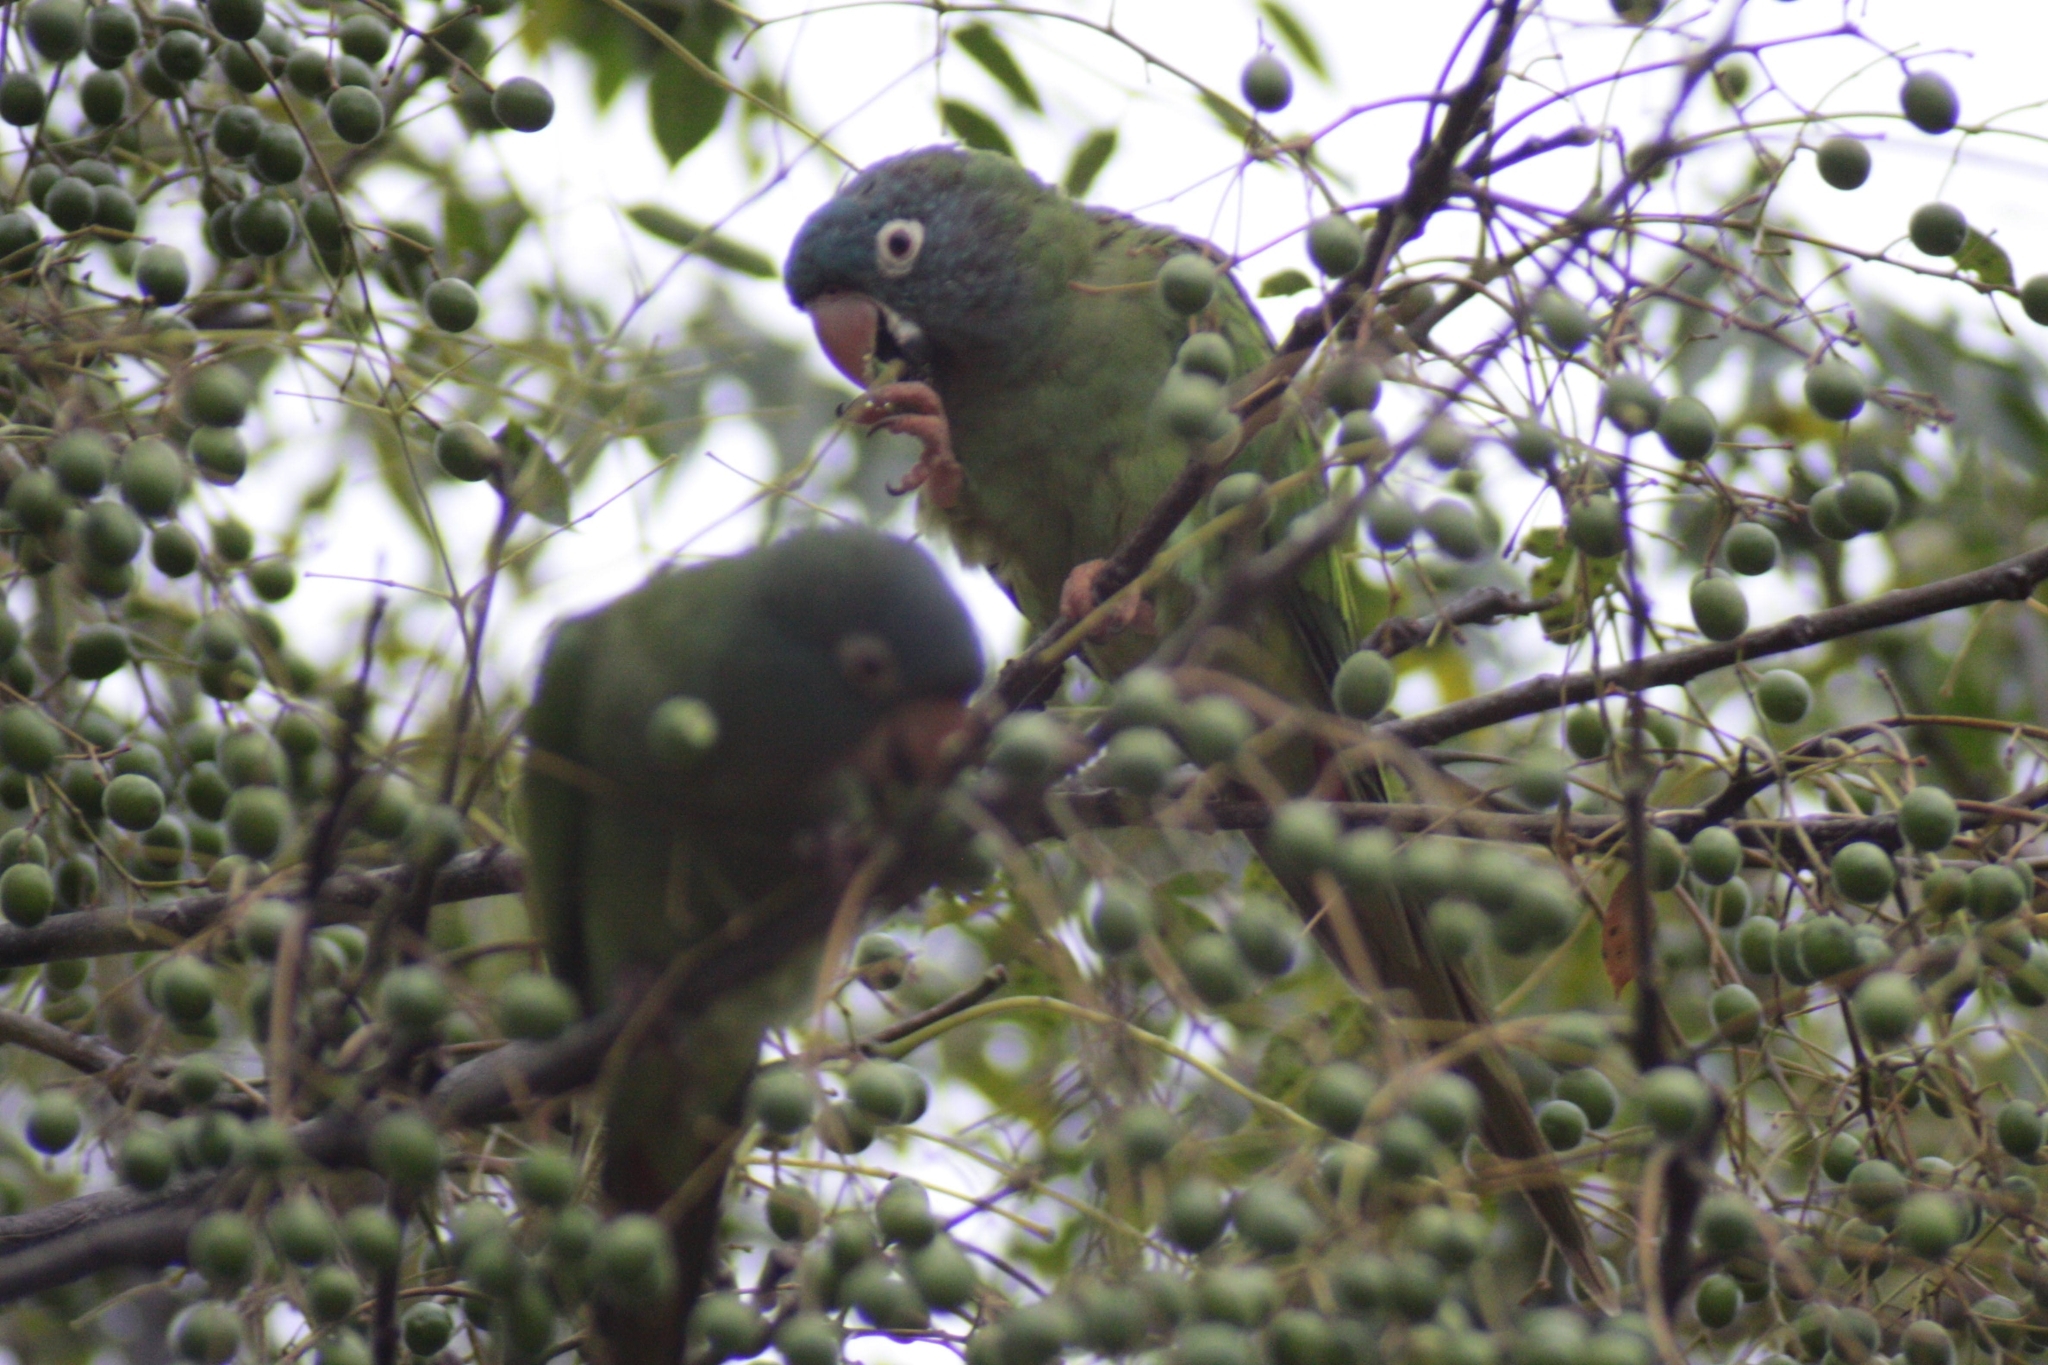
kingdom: Animalia
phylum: Chordata
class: Aves
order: Psittaciformes
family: Psittacidae
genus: Aratinga
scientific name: Aratinga acuticaudata
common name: Blue-crowned parakeet
